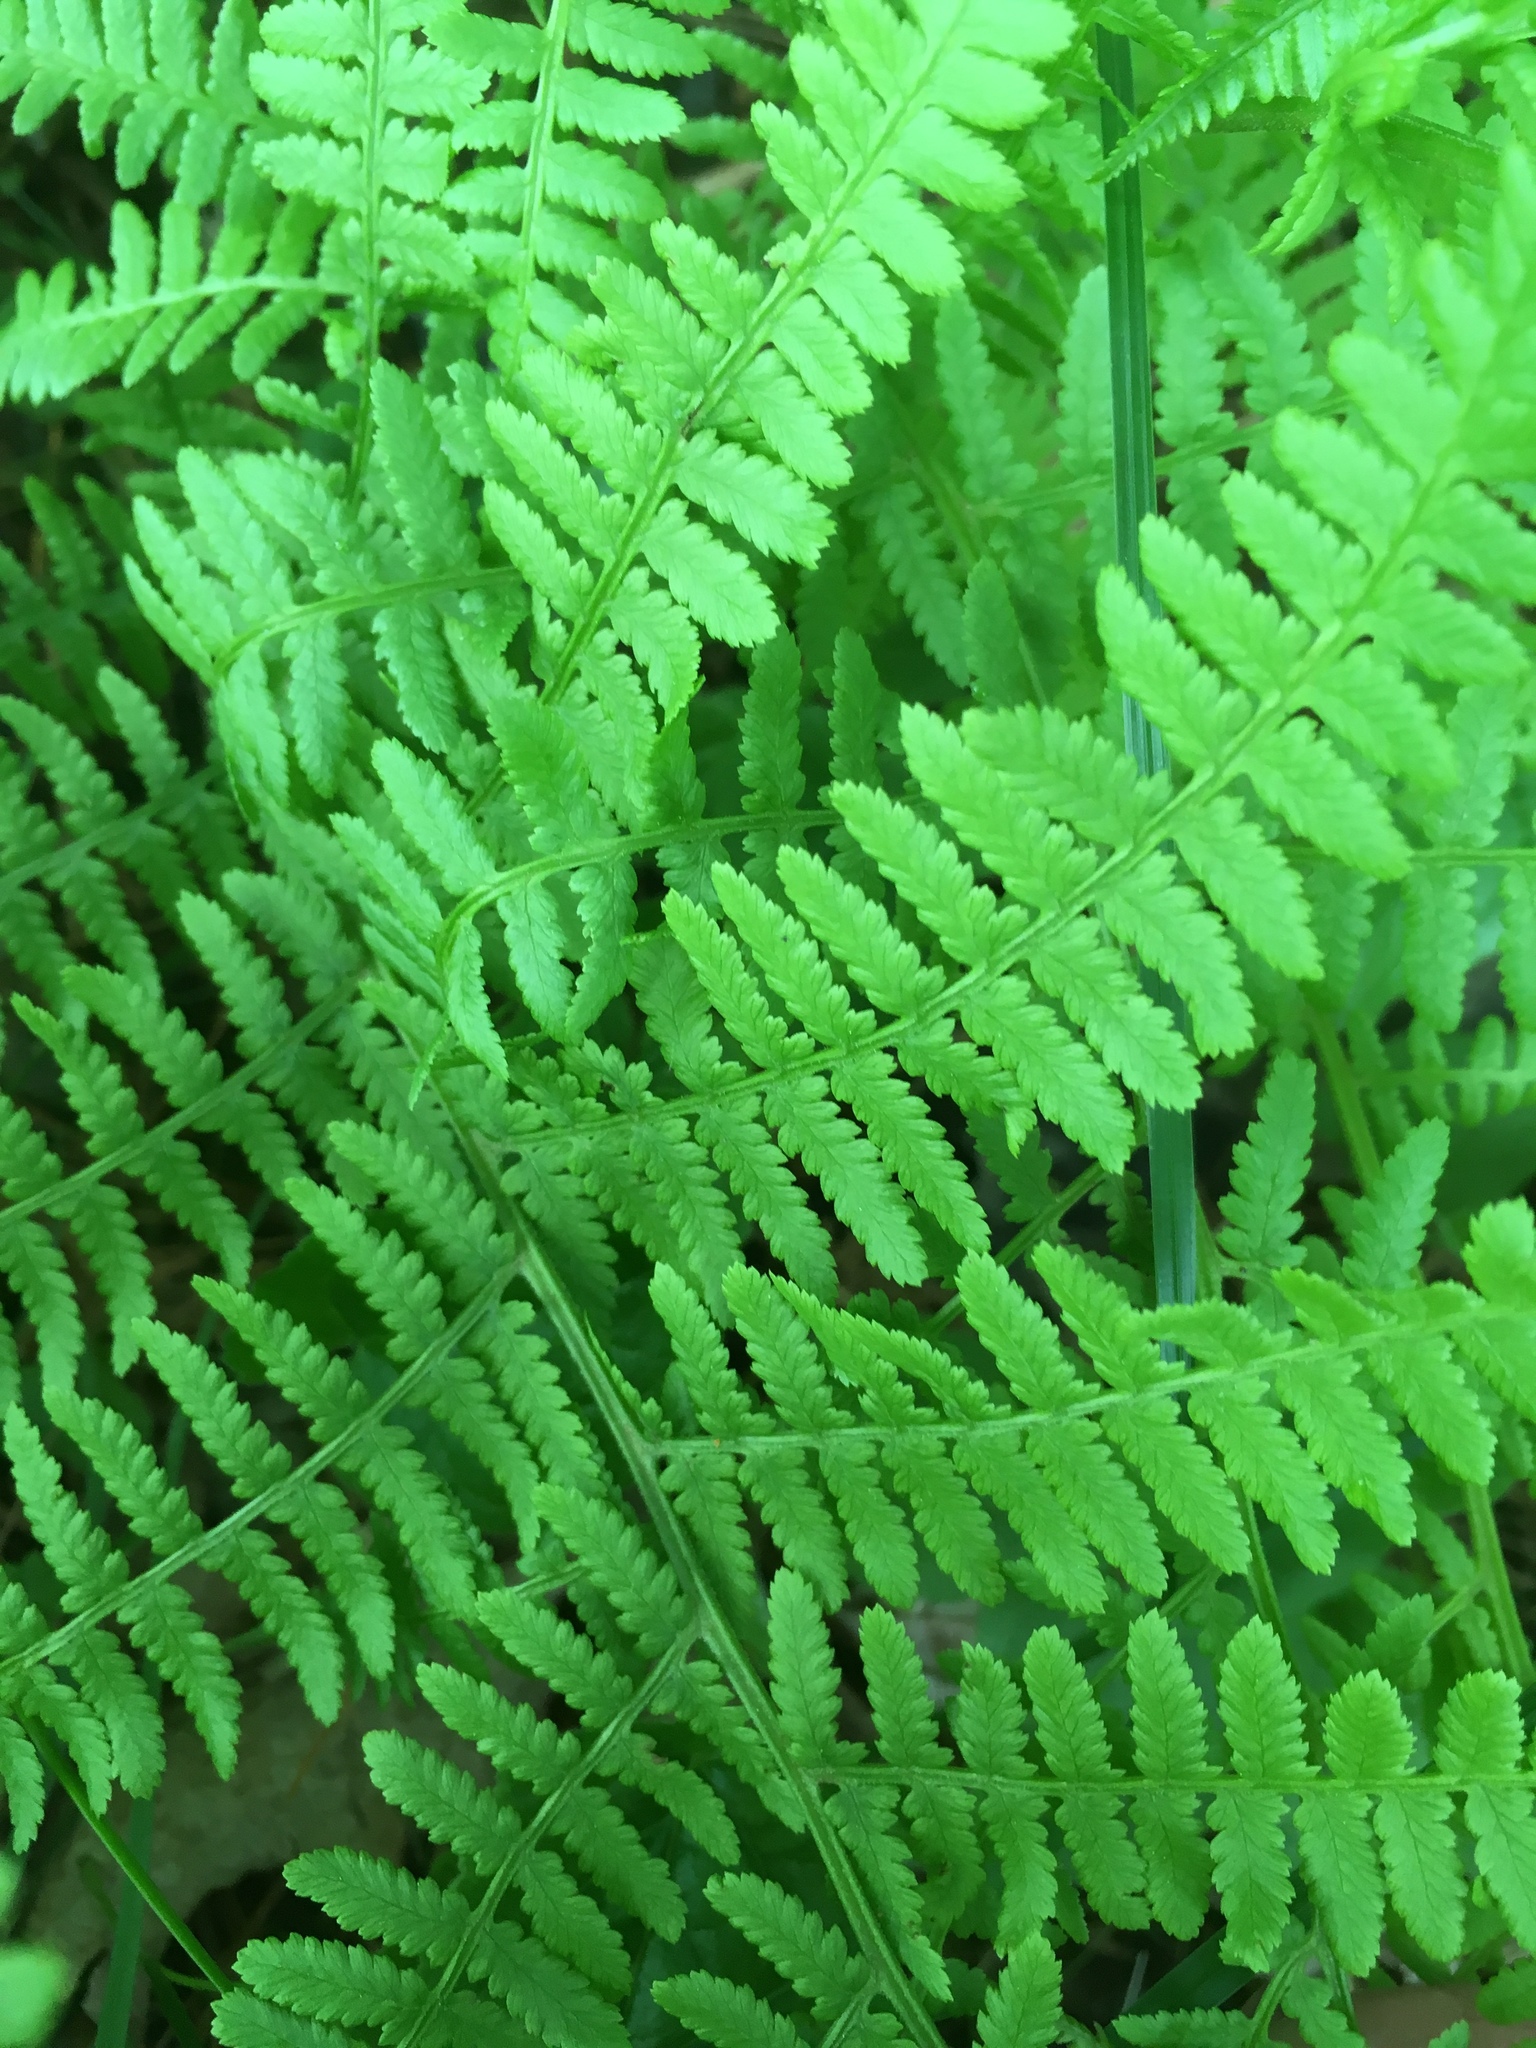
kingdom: Plantae
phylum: Tracheophyta
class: Polypodiopsida
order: Polypodiales
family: Athyriaceae
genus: Athyrium
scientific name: Athyrium angustum
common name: Northern lady fern
